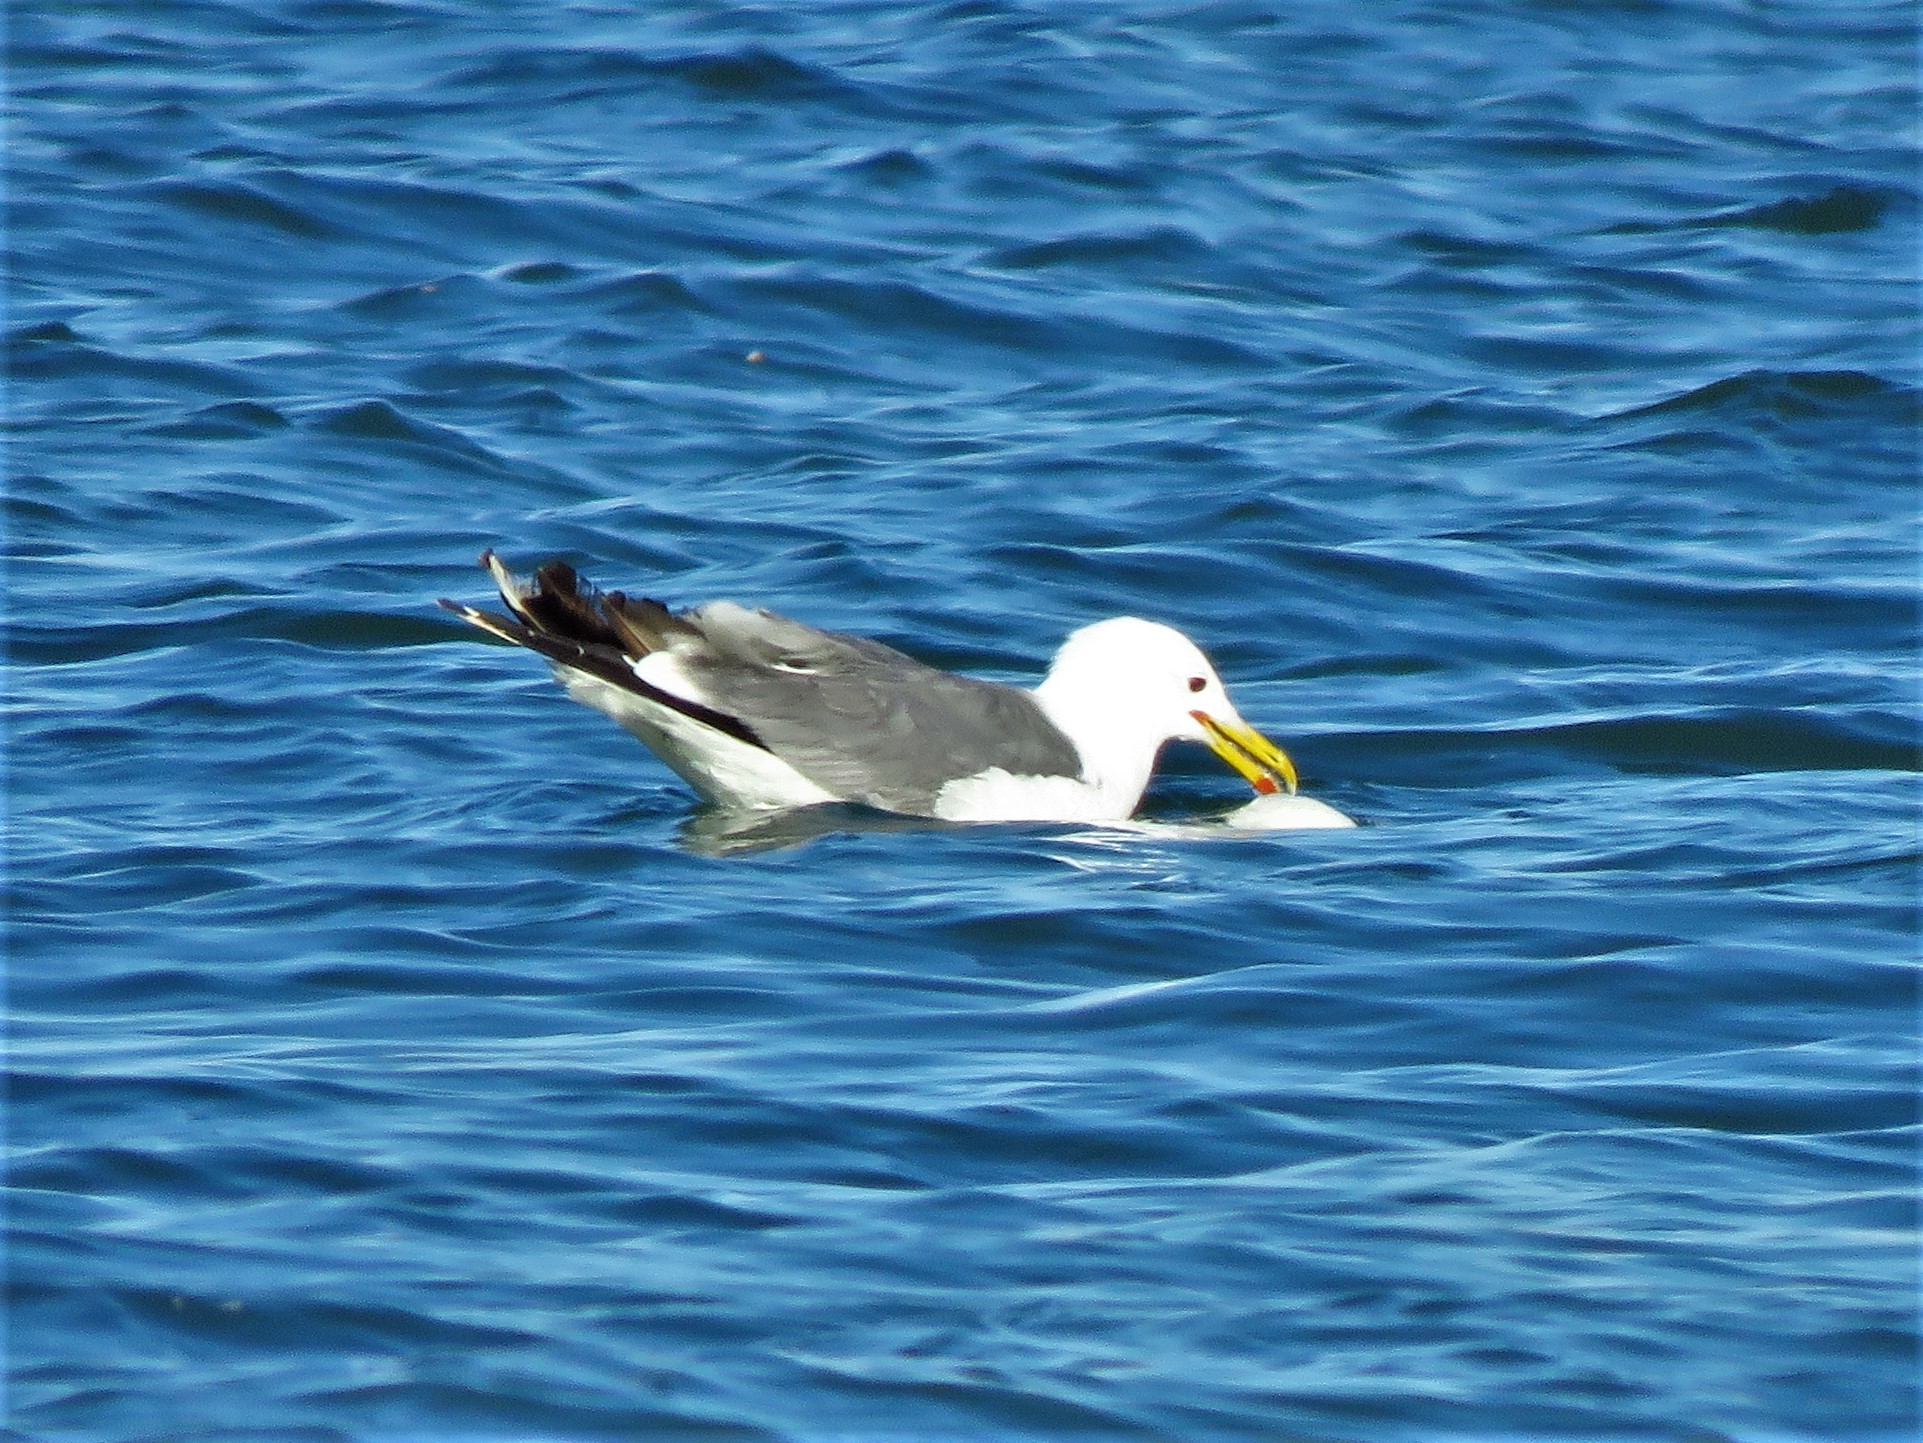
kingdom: Animalia
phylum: Chordata
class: Aves
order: Charadriiformes
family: Laridae
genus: Larus
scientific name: Larus californicus
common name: California gull
